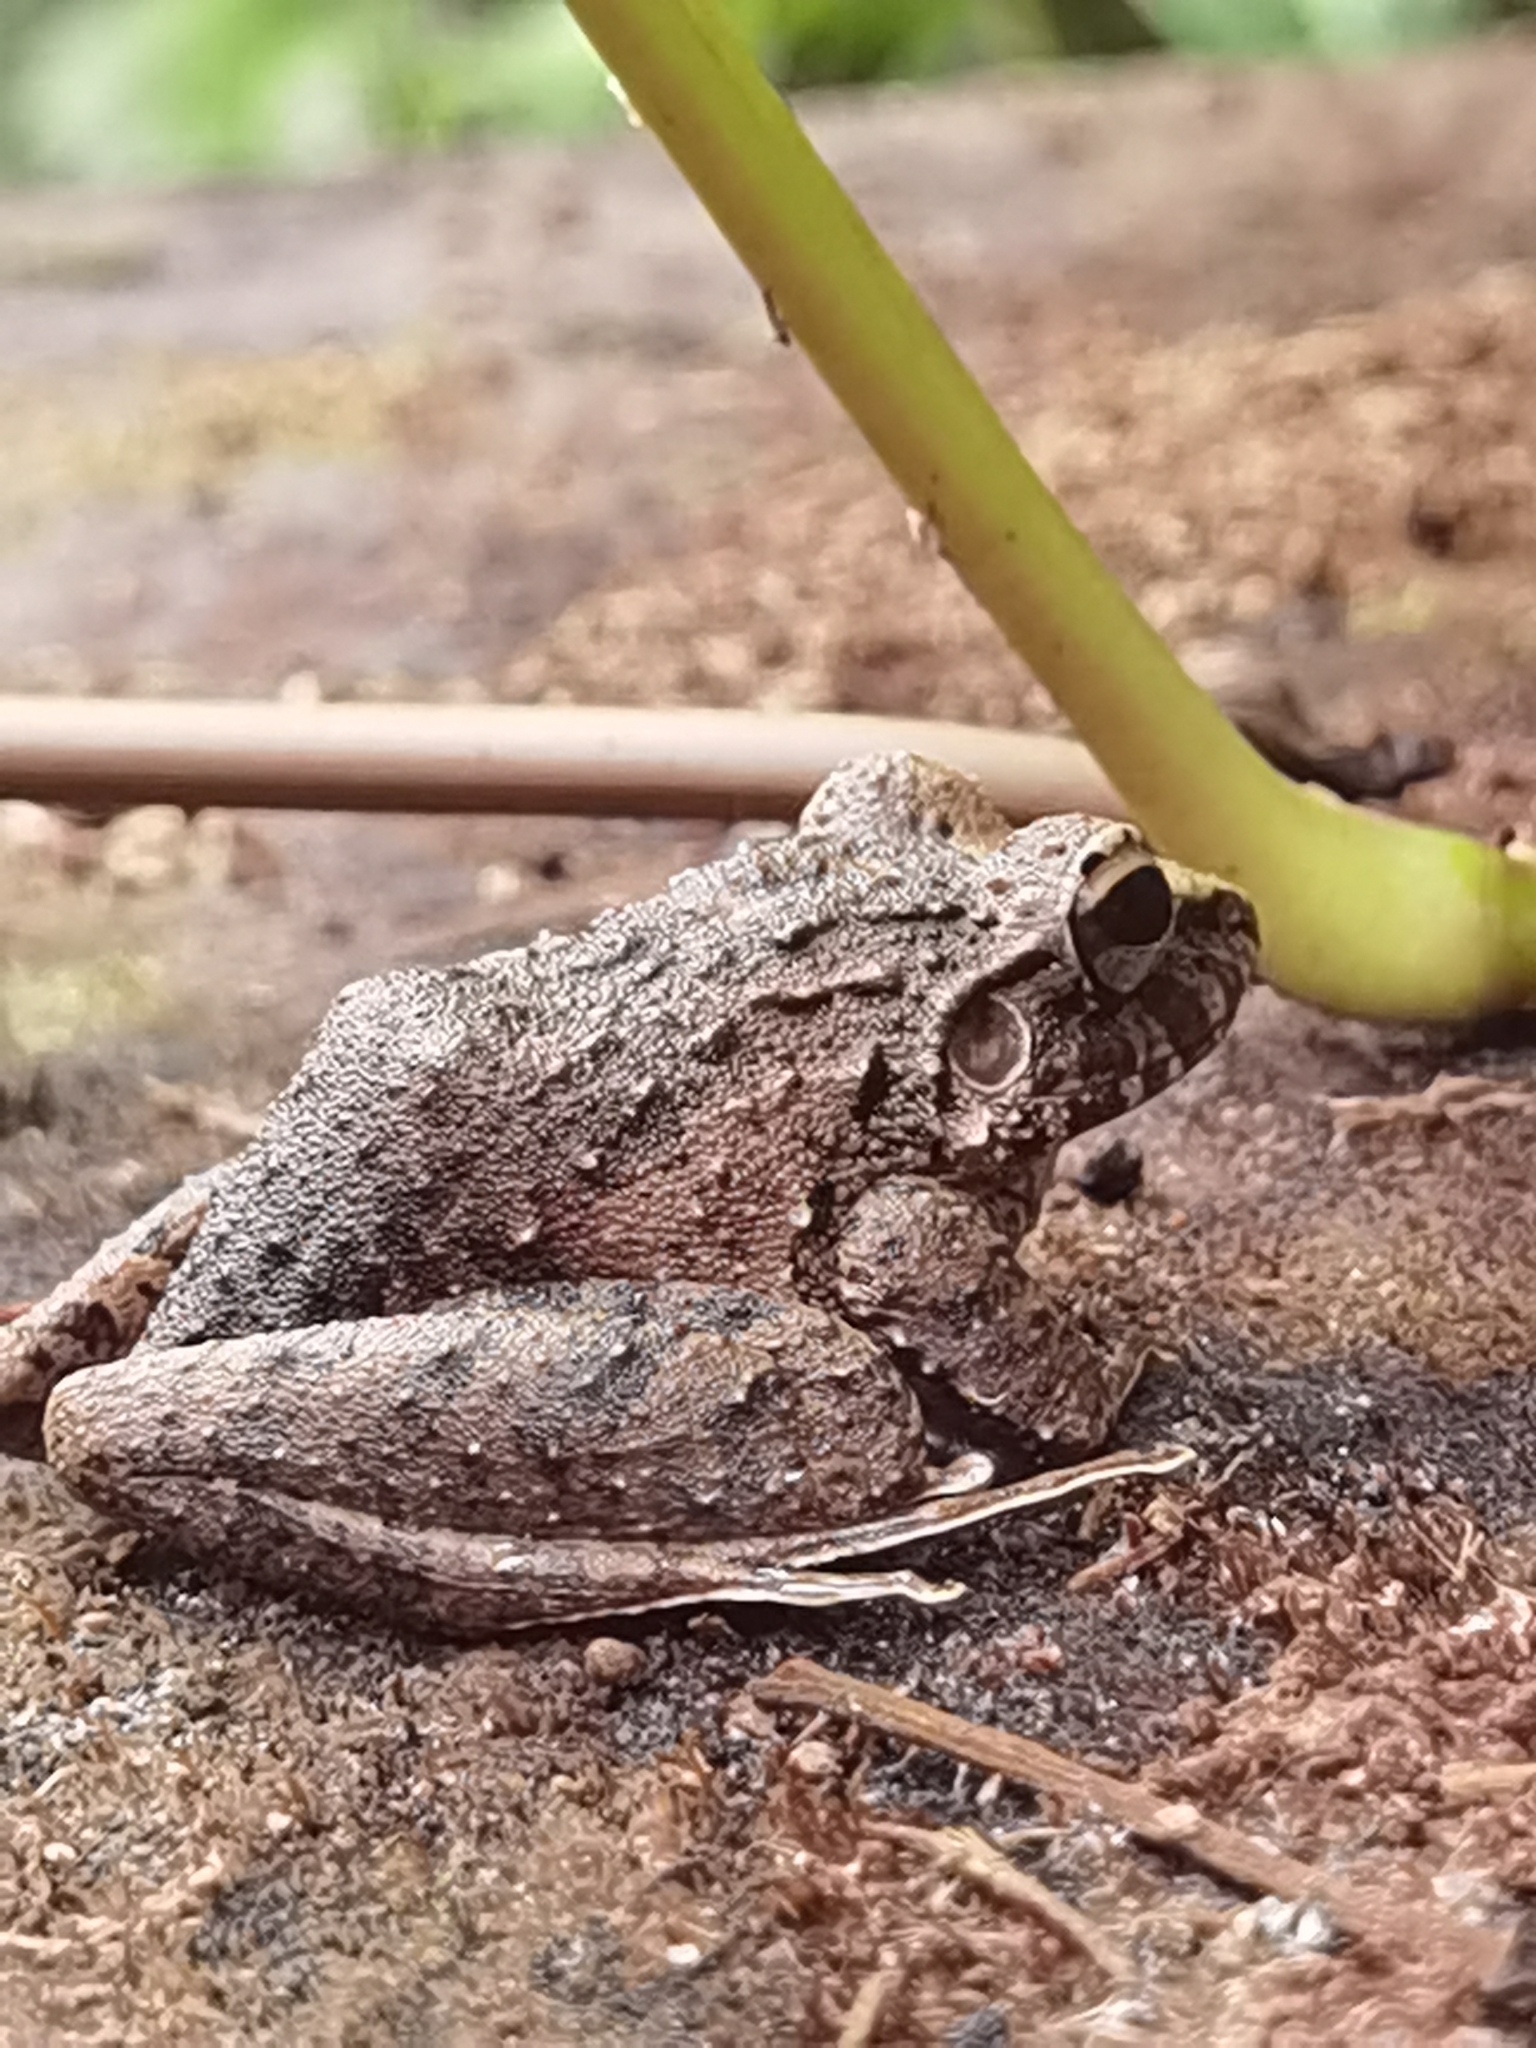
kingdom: Animalia
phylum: Chordata
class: Amphibia
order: Anura
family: Craugastoridae
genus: Craugastor
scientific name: Craugastor fitzingeri
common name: Fitzinger's robber frog
